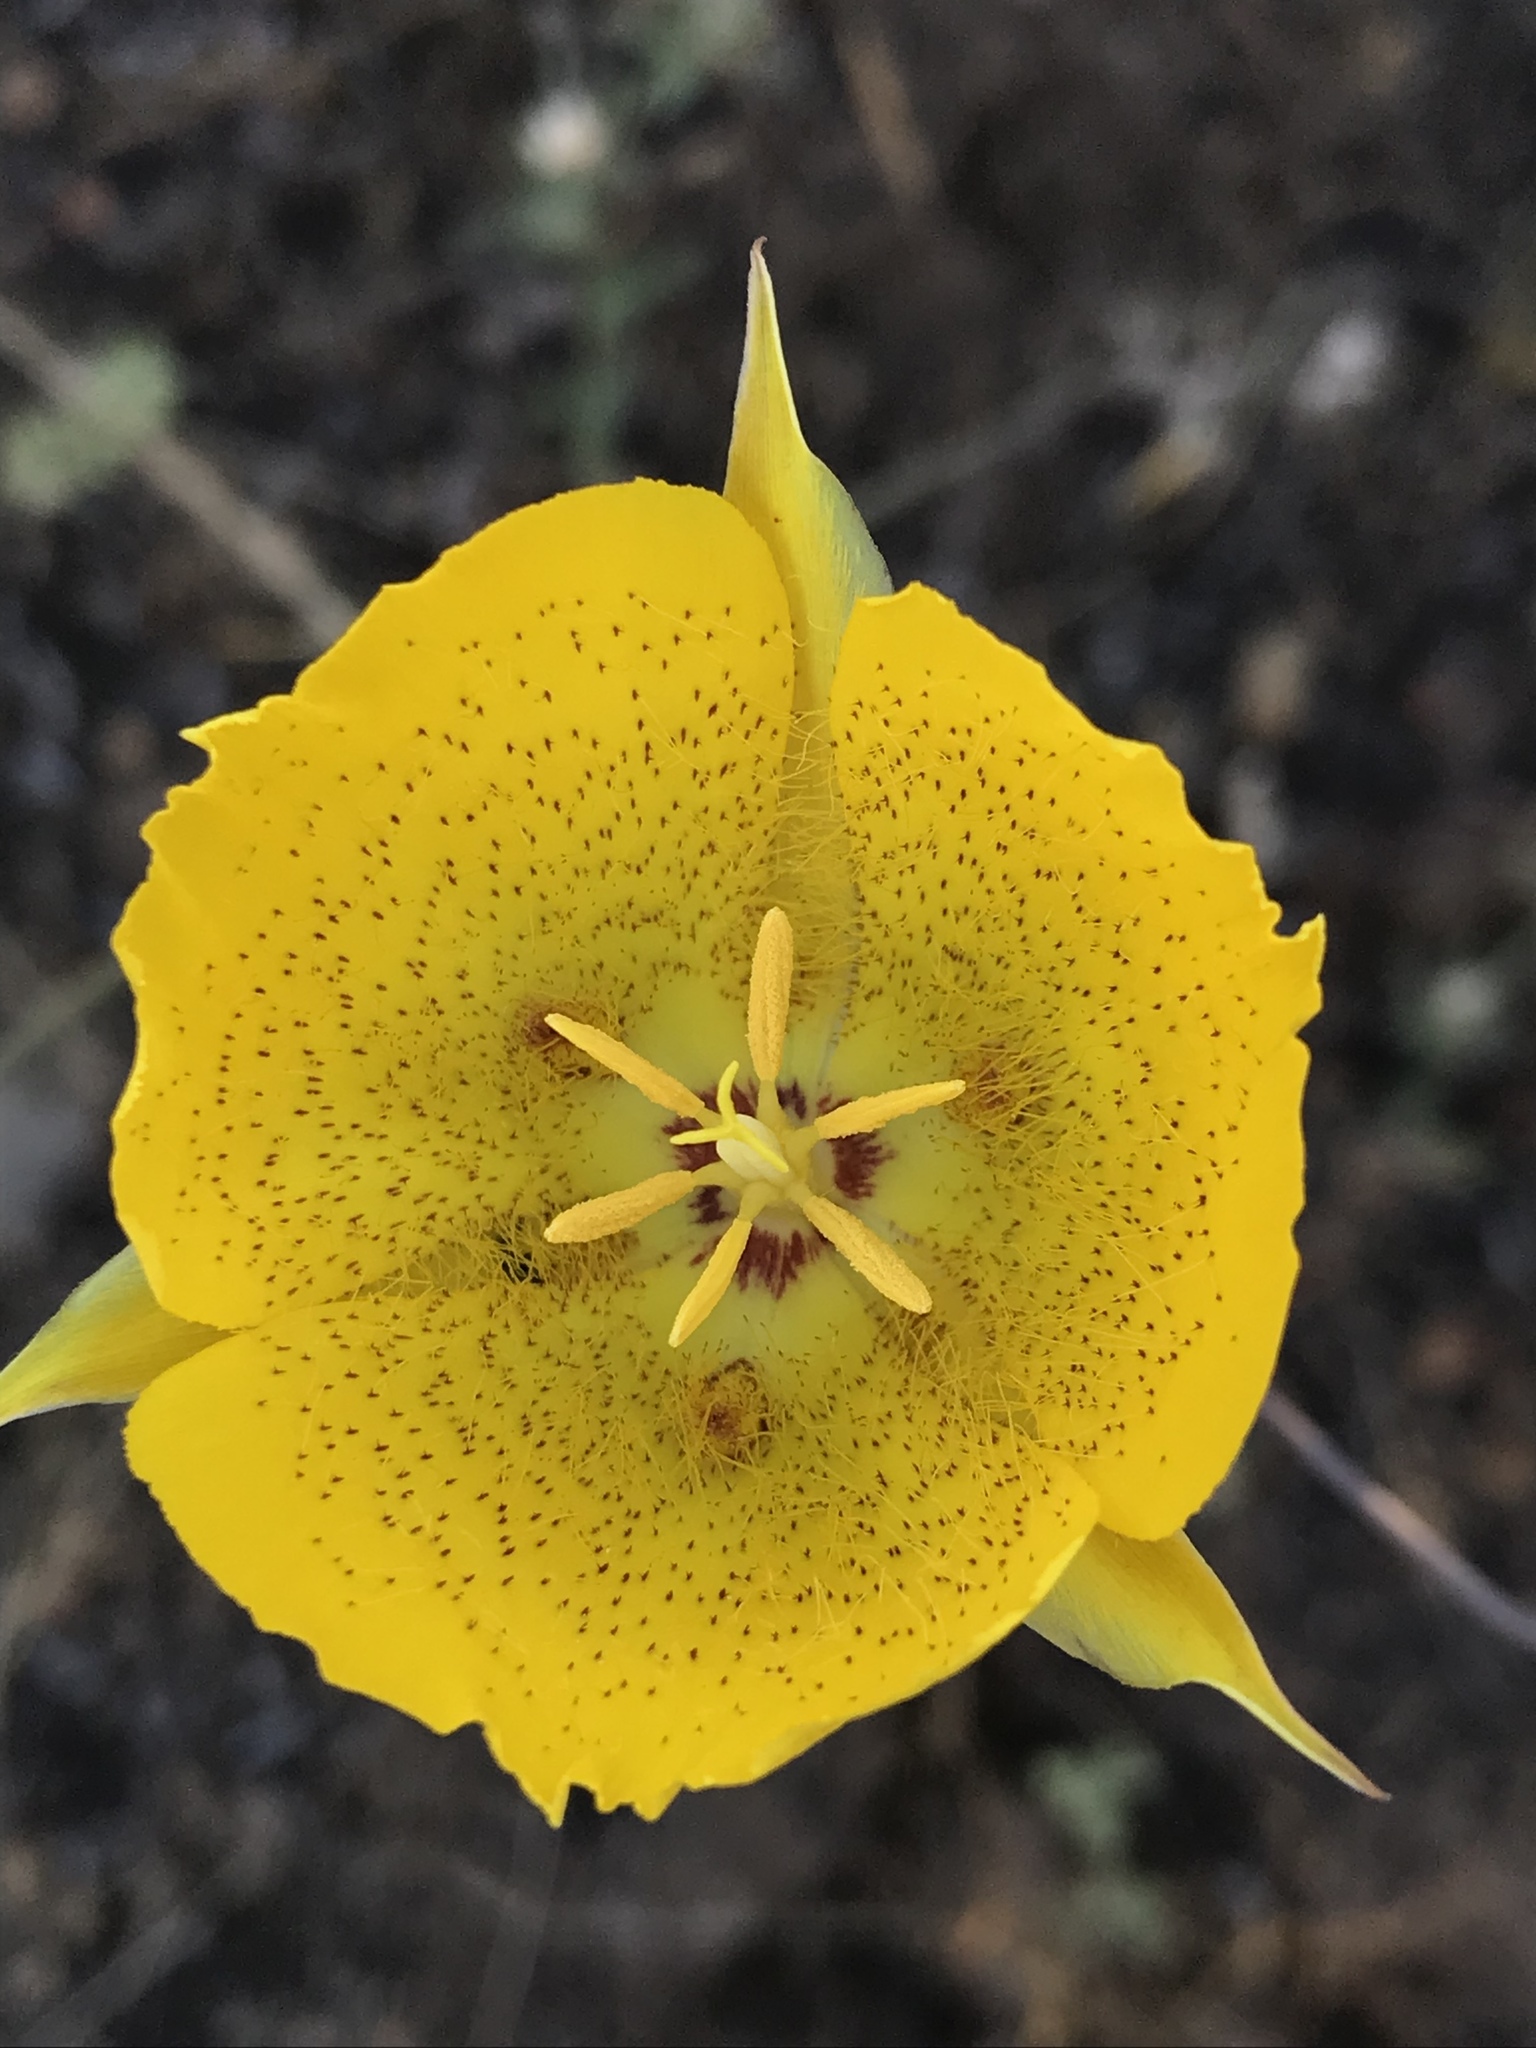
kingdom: Plantae
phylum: Tracheophyta
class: Liliopsida
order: Liliales
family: Liliaceae
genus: Calochortus
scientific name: Calochortus weedii
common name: Weed's mariposa-lily
